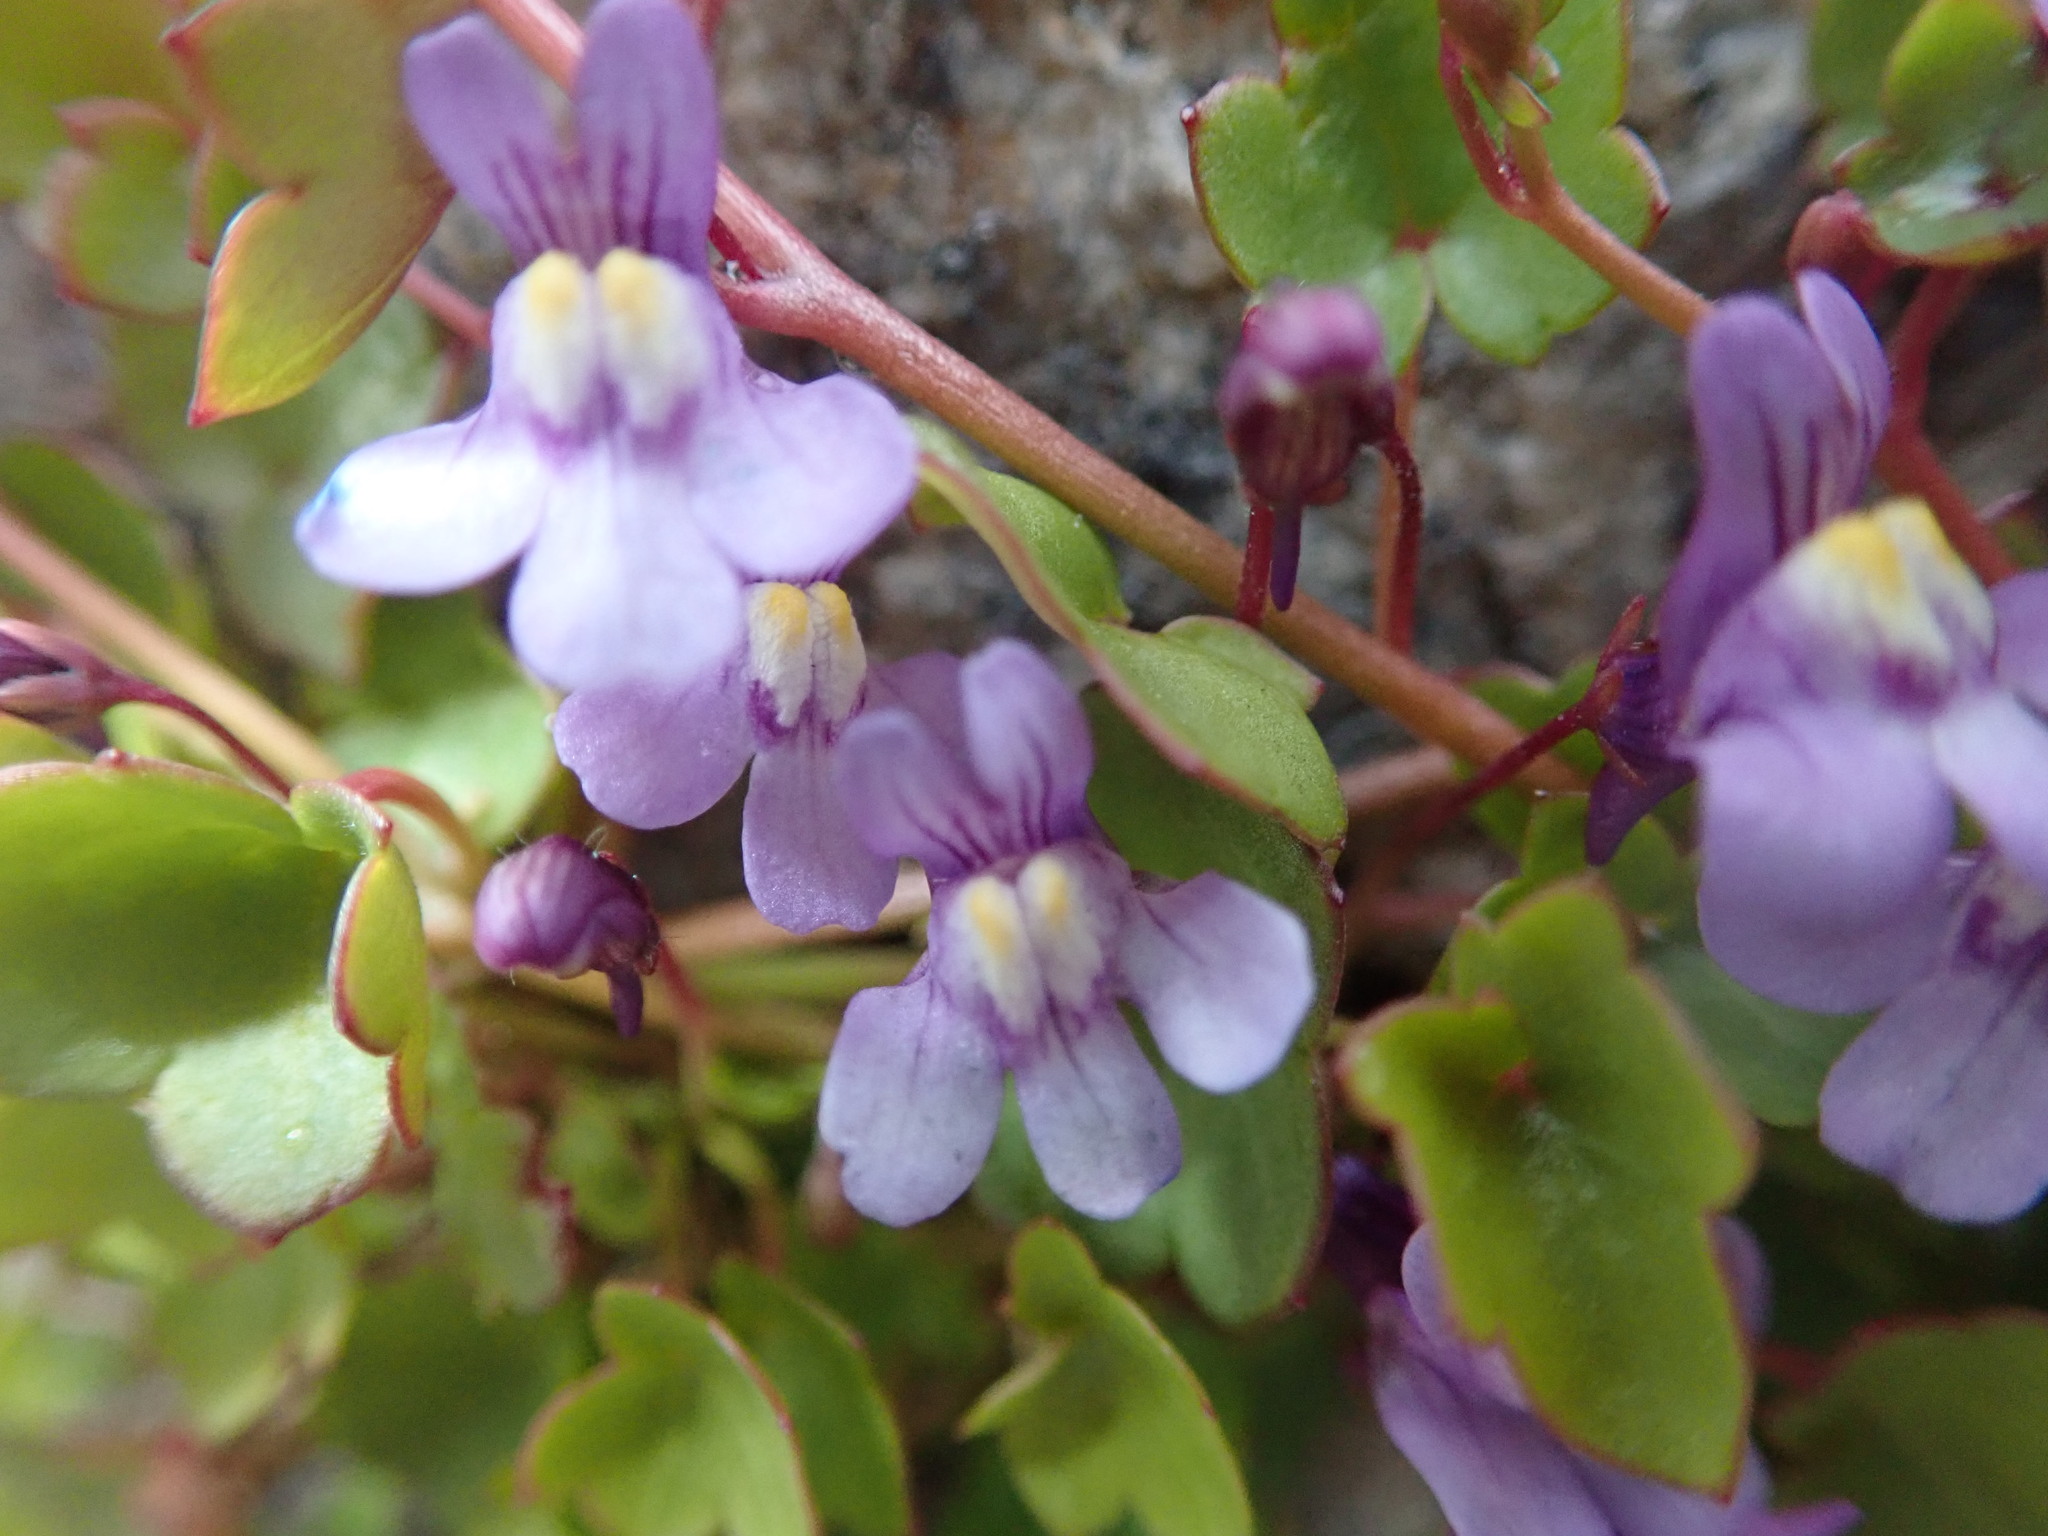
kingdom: Plantae
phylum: Tracheophyta
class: Magnoliopsida
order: Lamiales
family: Plantaginaceae
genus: Cymbalaria
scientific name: Cymbalaria muralis
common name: Ivy-leaved toadflax
